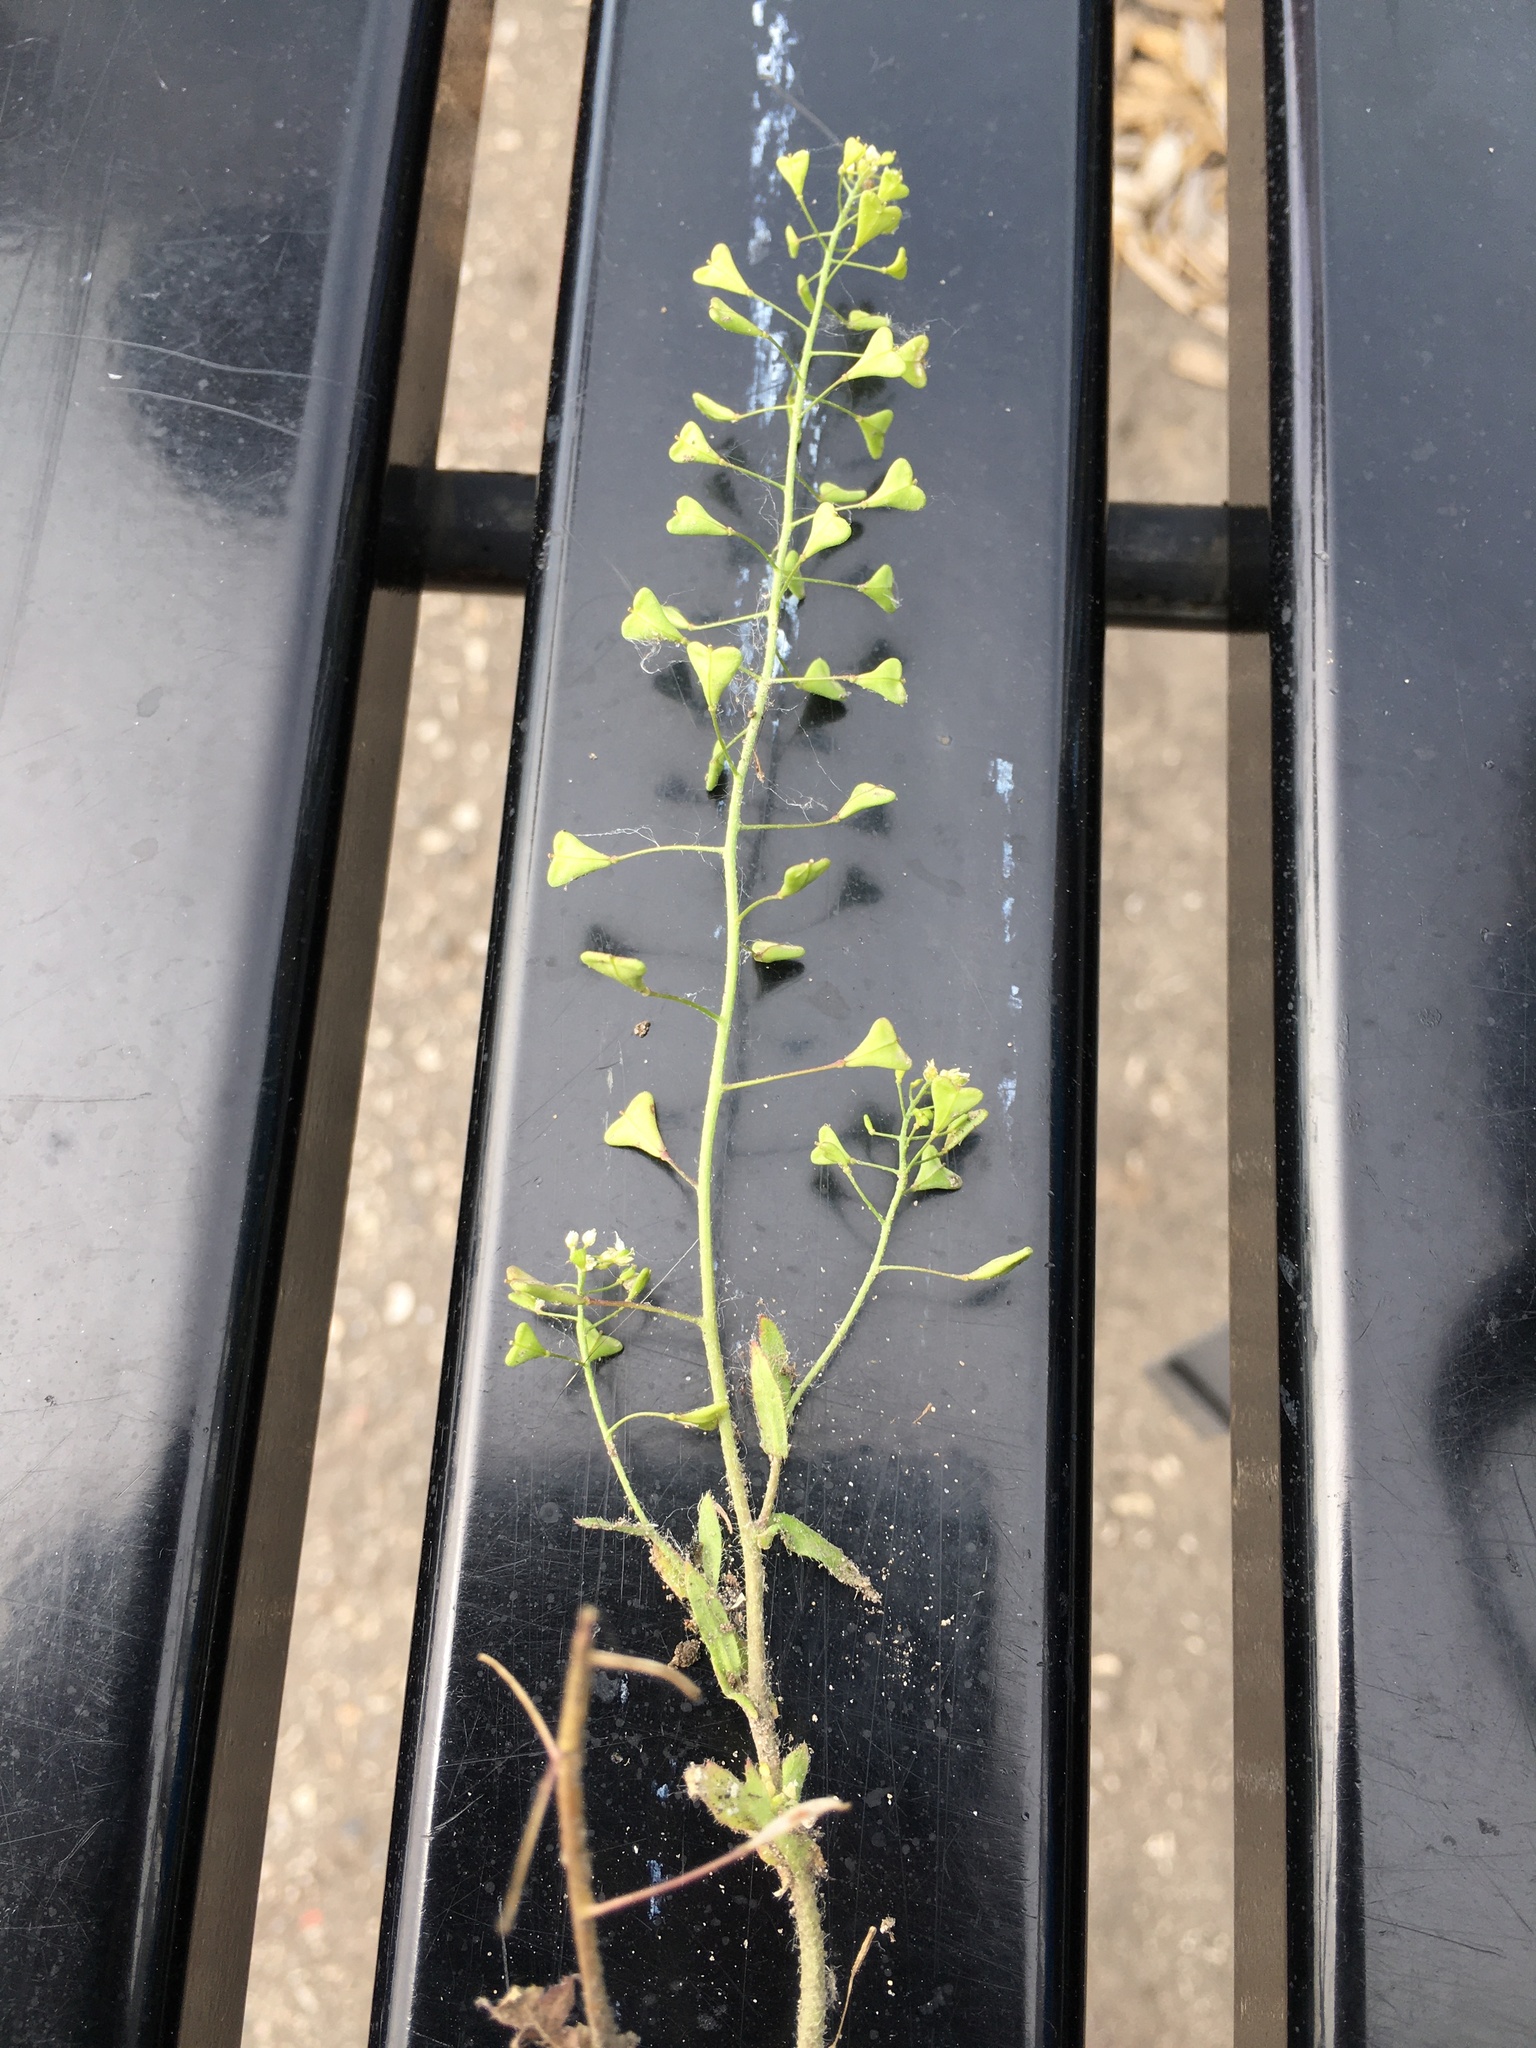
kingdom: Plantae
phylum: Tracheophyta
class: Magnoliopsida
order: Brassicales
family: Brassicaceae
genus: Capsella
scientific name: Capsella bursa-pastoris
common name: Shepherd's purse
